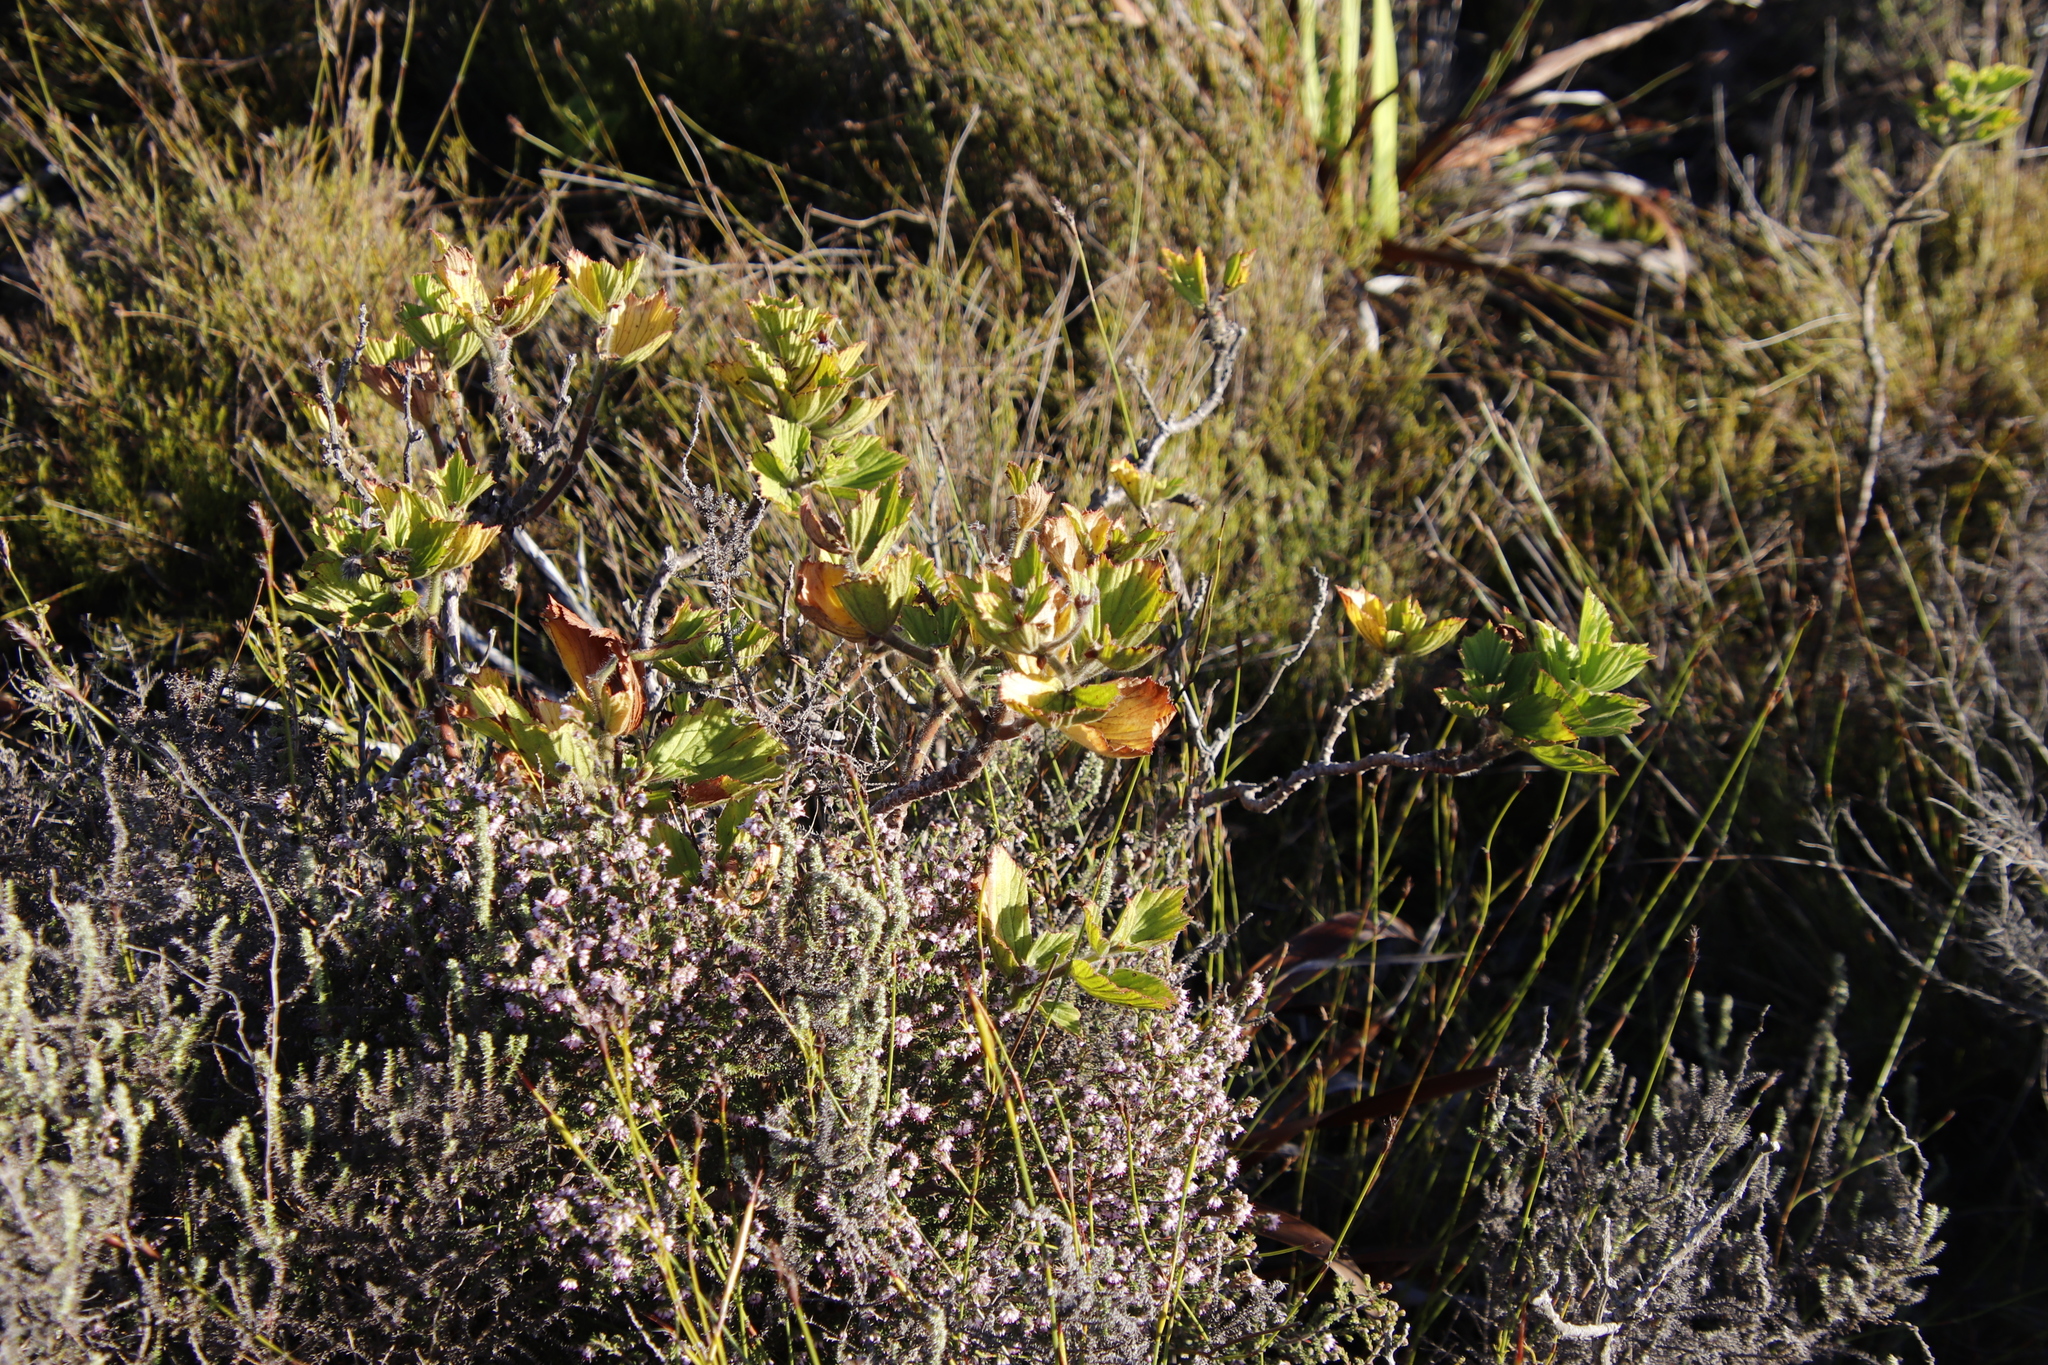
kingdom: Plantae
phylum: Tracheophyta
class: Magnoliopsida
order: Geraniales
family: Geraniaceae
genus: Pelargonium
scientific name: Pelargonium cucullatum
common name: Tree pelargonium
